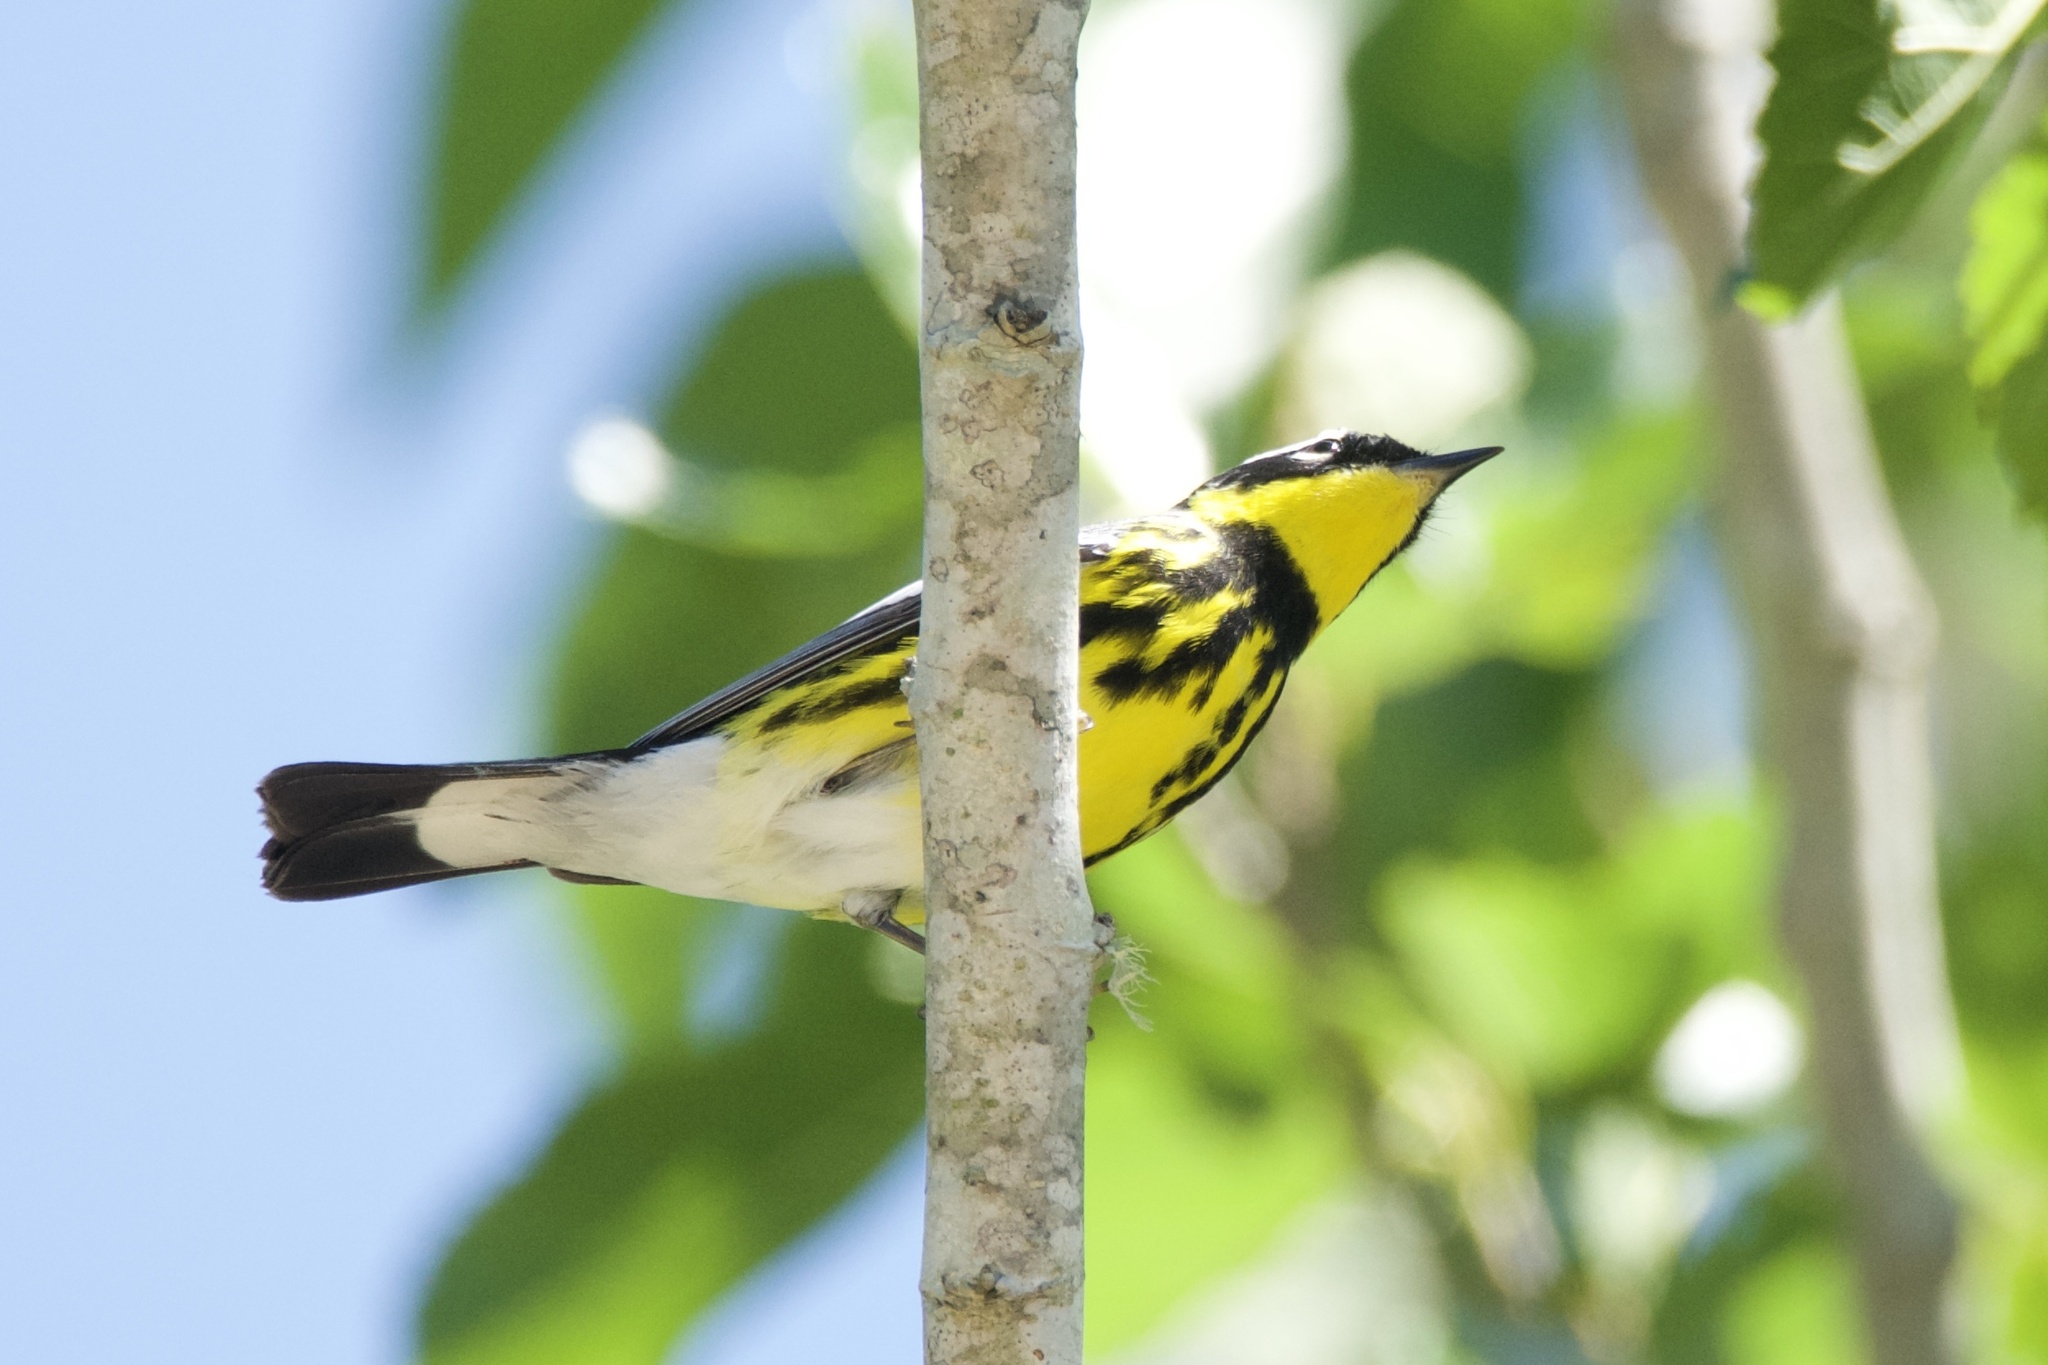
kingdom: Animalia
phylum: Chordata
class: Aves
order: Passeriformes
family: Parulidae
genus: Setophaga
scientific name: Setophaga magnolia
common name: Magnolia warbler
